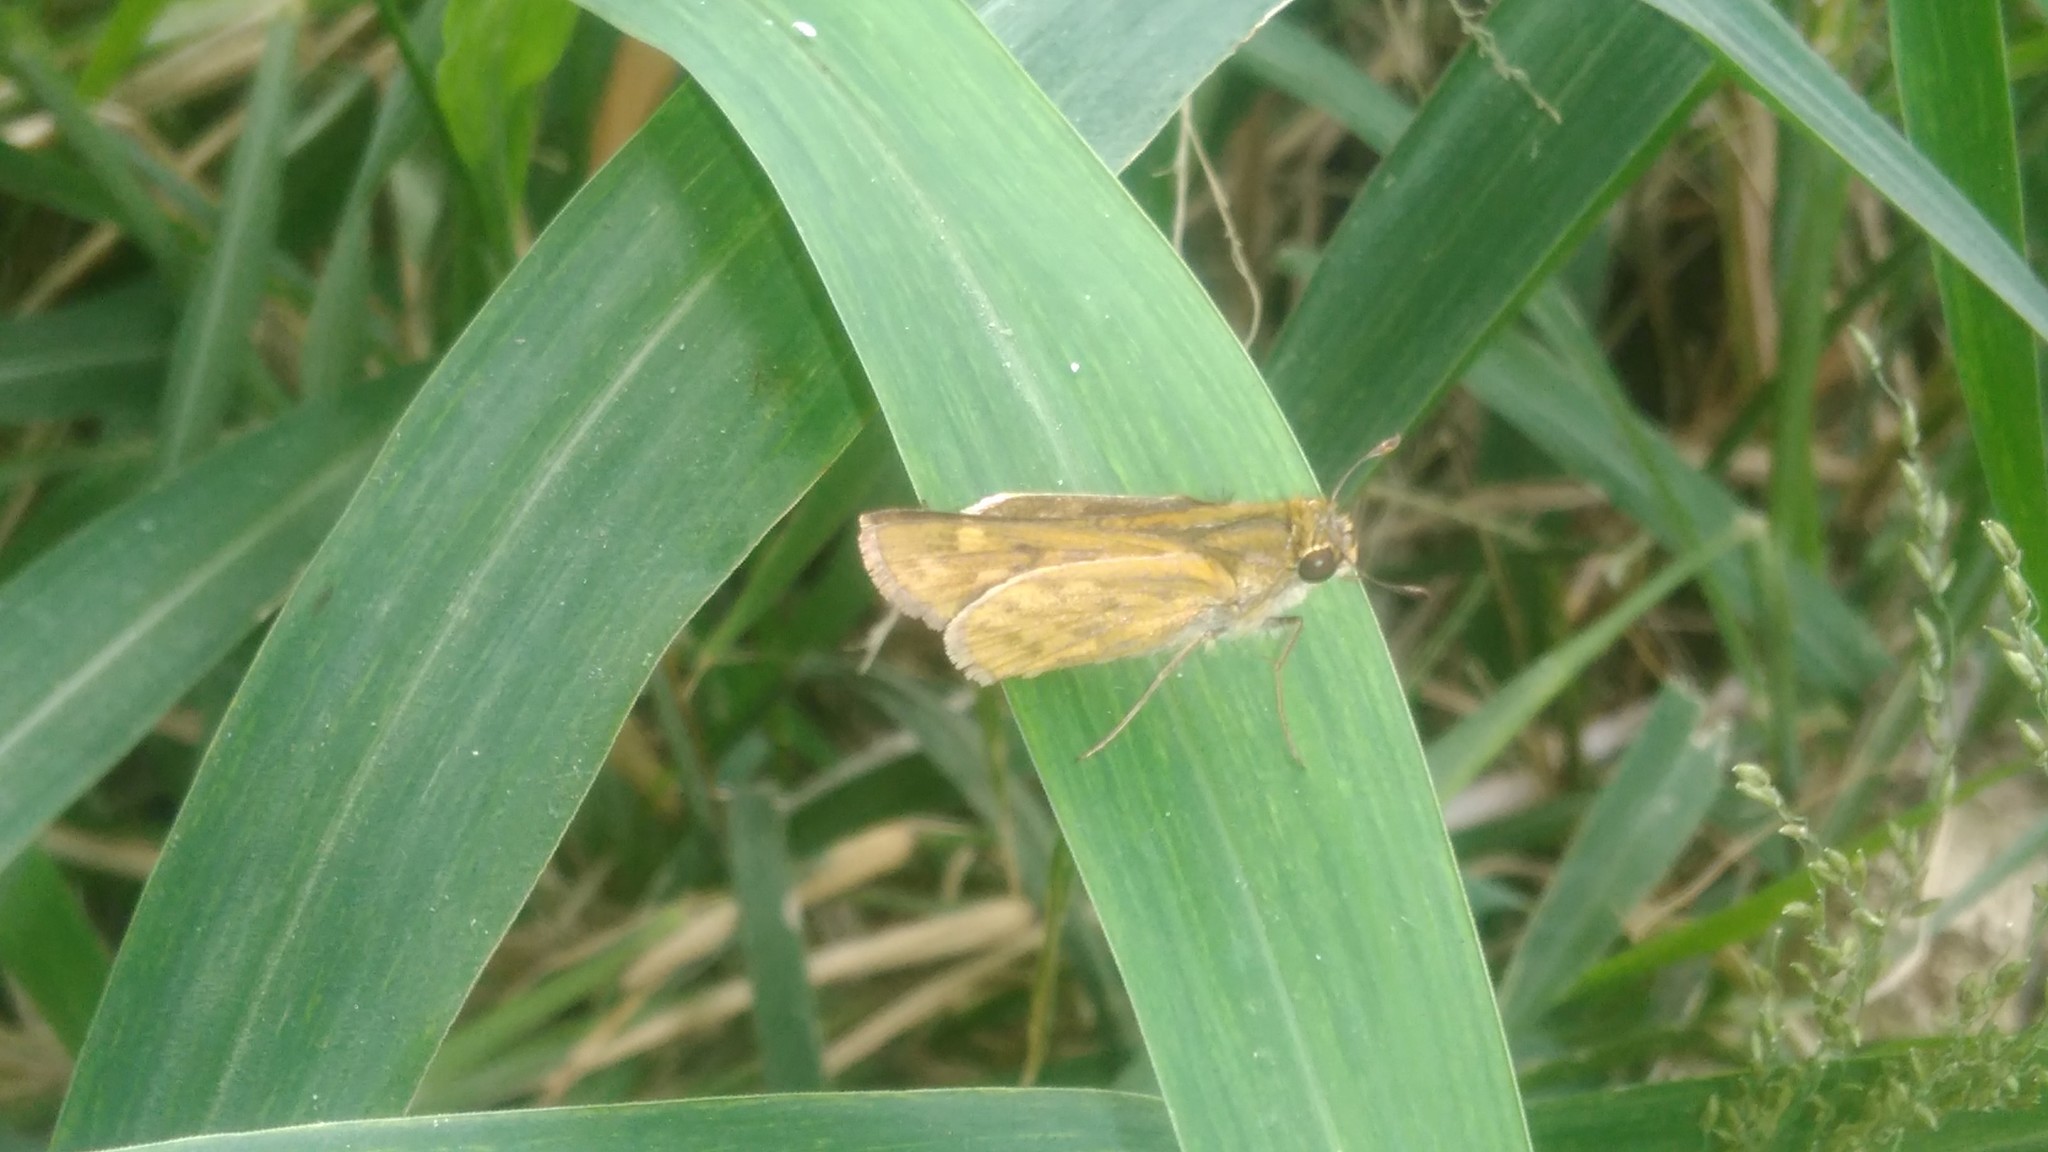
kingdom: Animalia
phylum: Arthropoda
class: Insecta
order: Lepidoptera
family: Hesperiidae
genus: Hylephila
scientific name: Hylephila phyleus
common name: Fiery skipper
